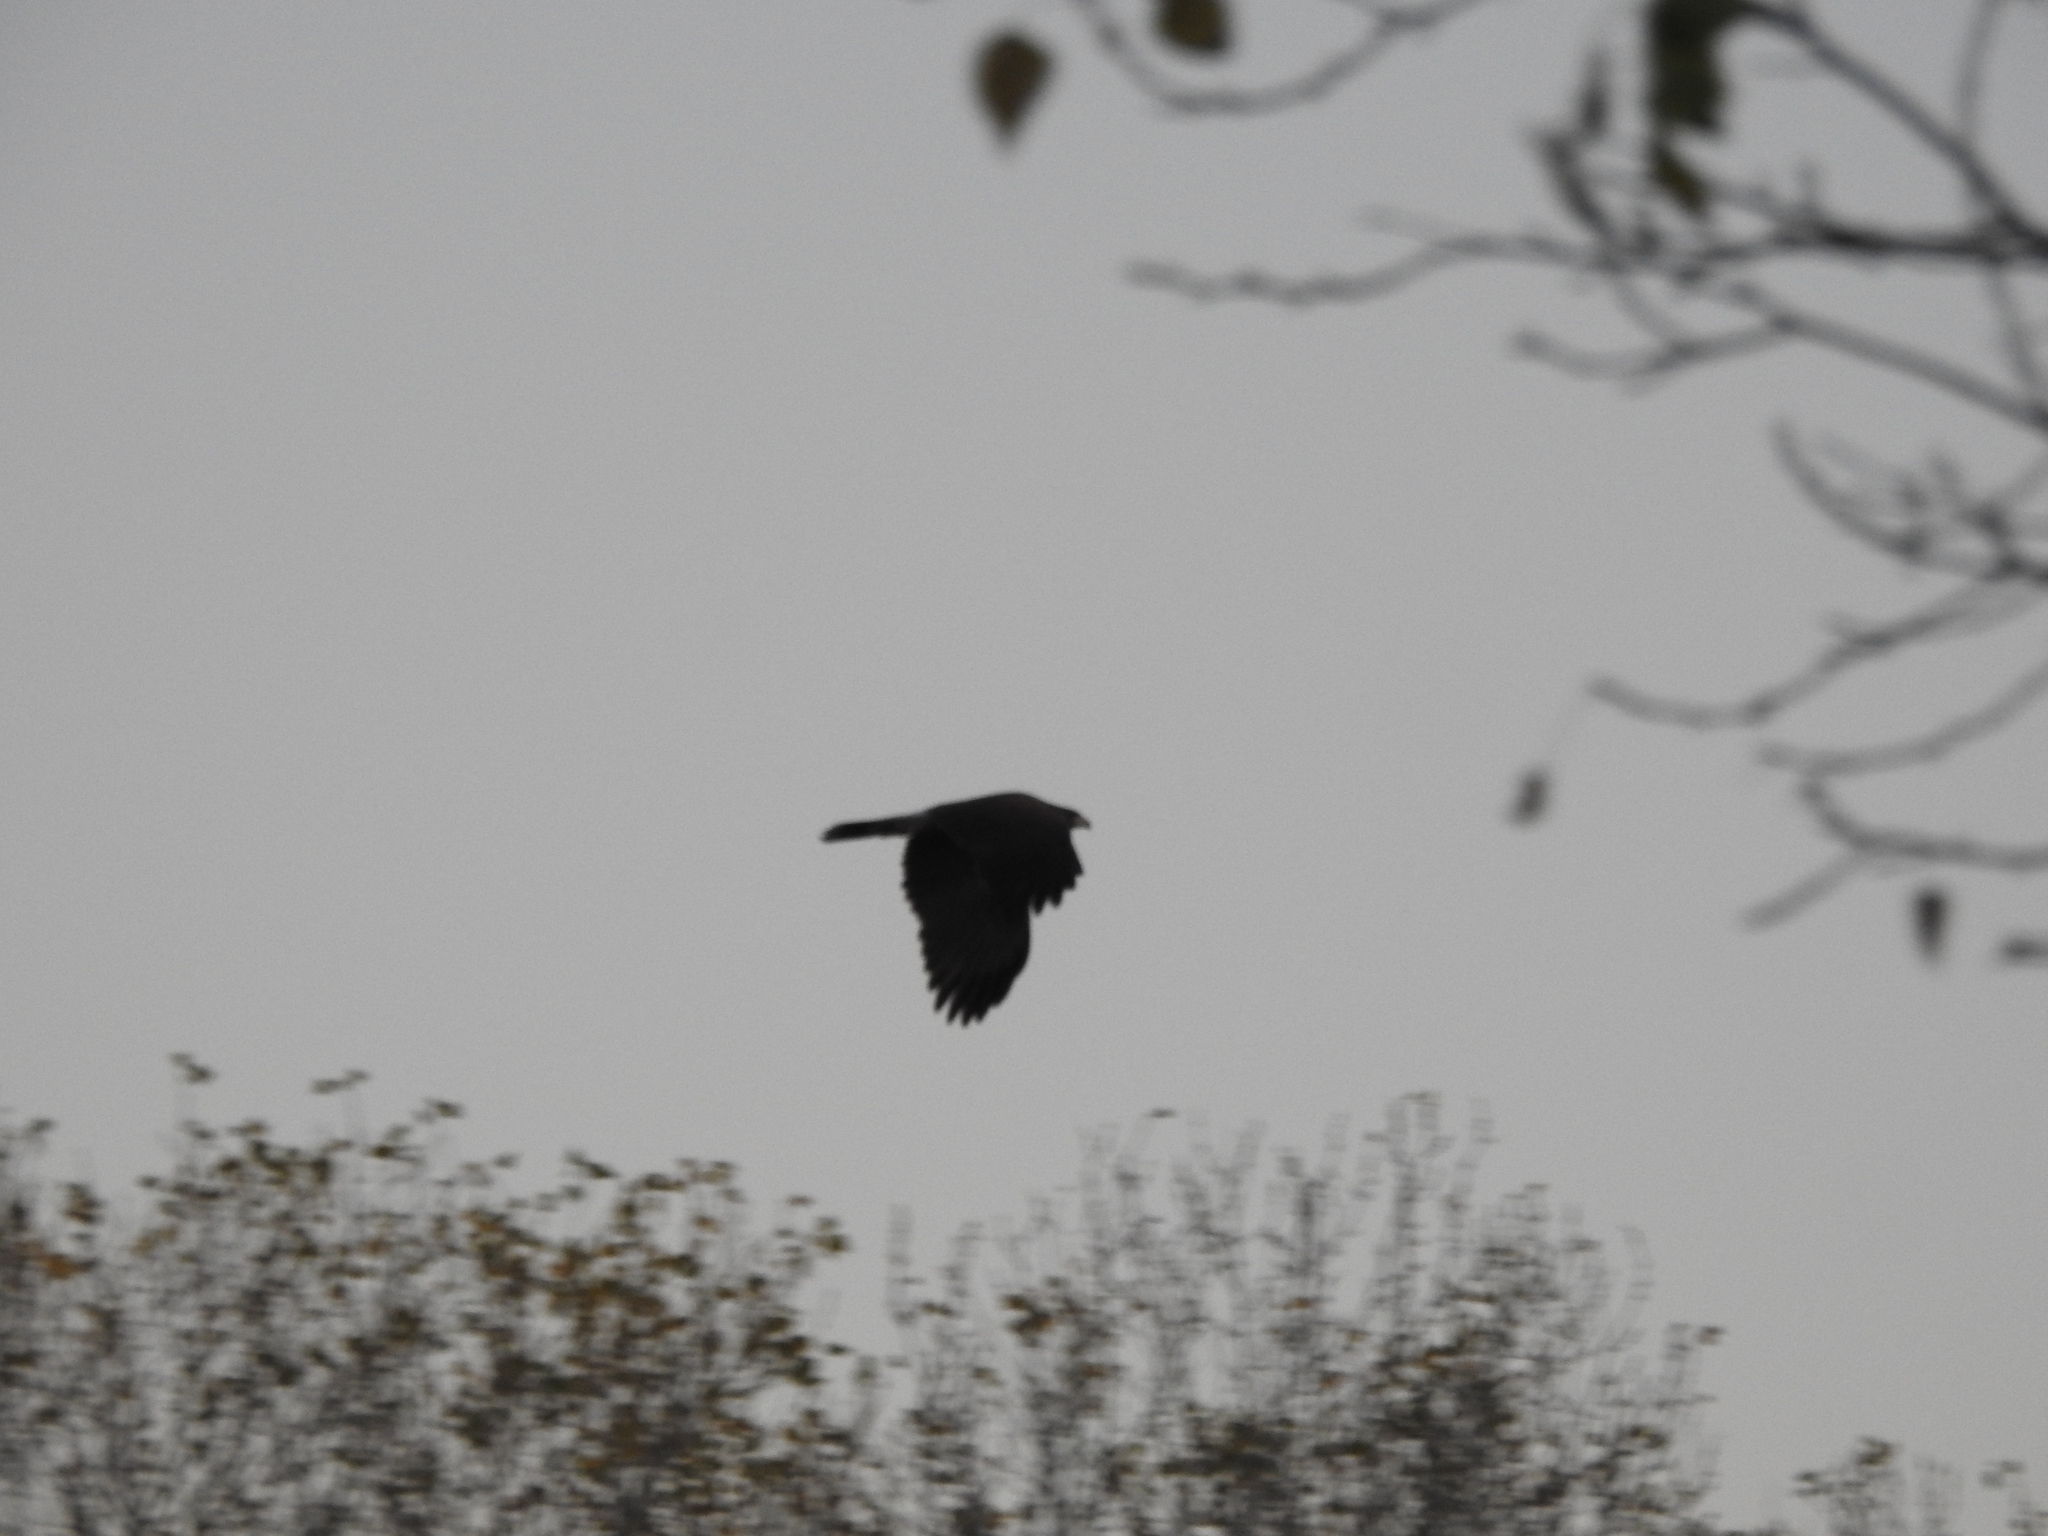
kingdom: Animalia
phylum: Chordata
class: Aves
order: Accipitriformes
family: Accipitridae
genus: Parabuteo
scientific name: Parabuteo unicinctus
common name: Harris's hawk
